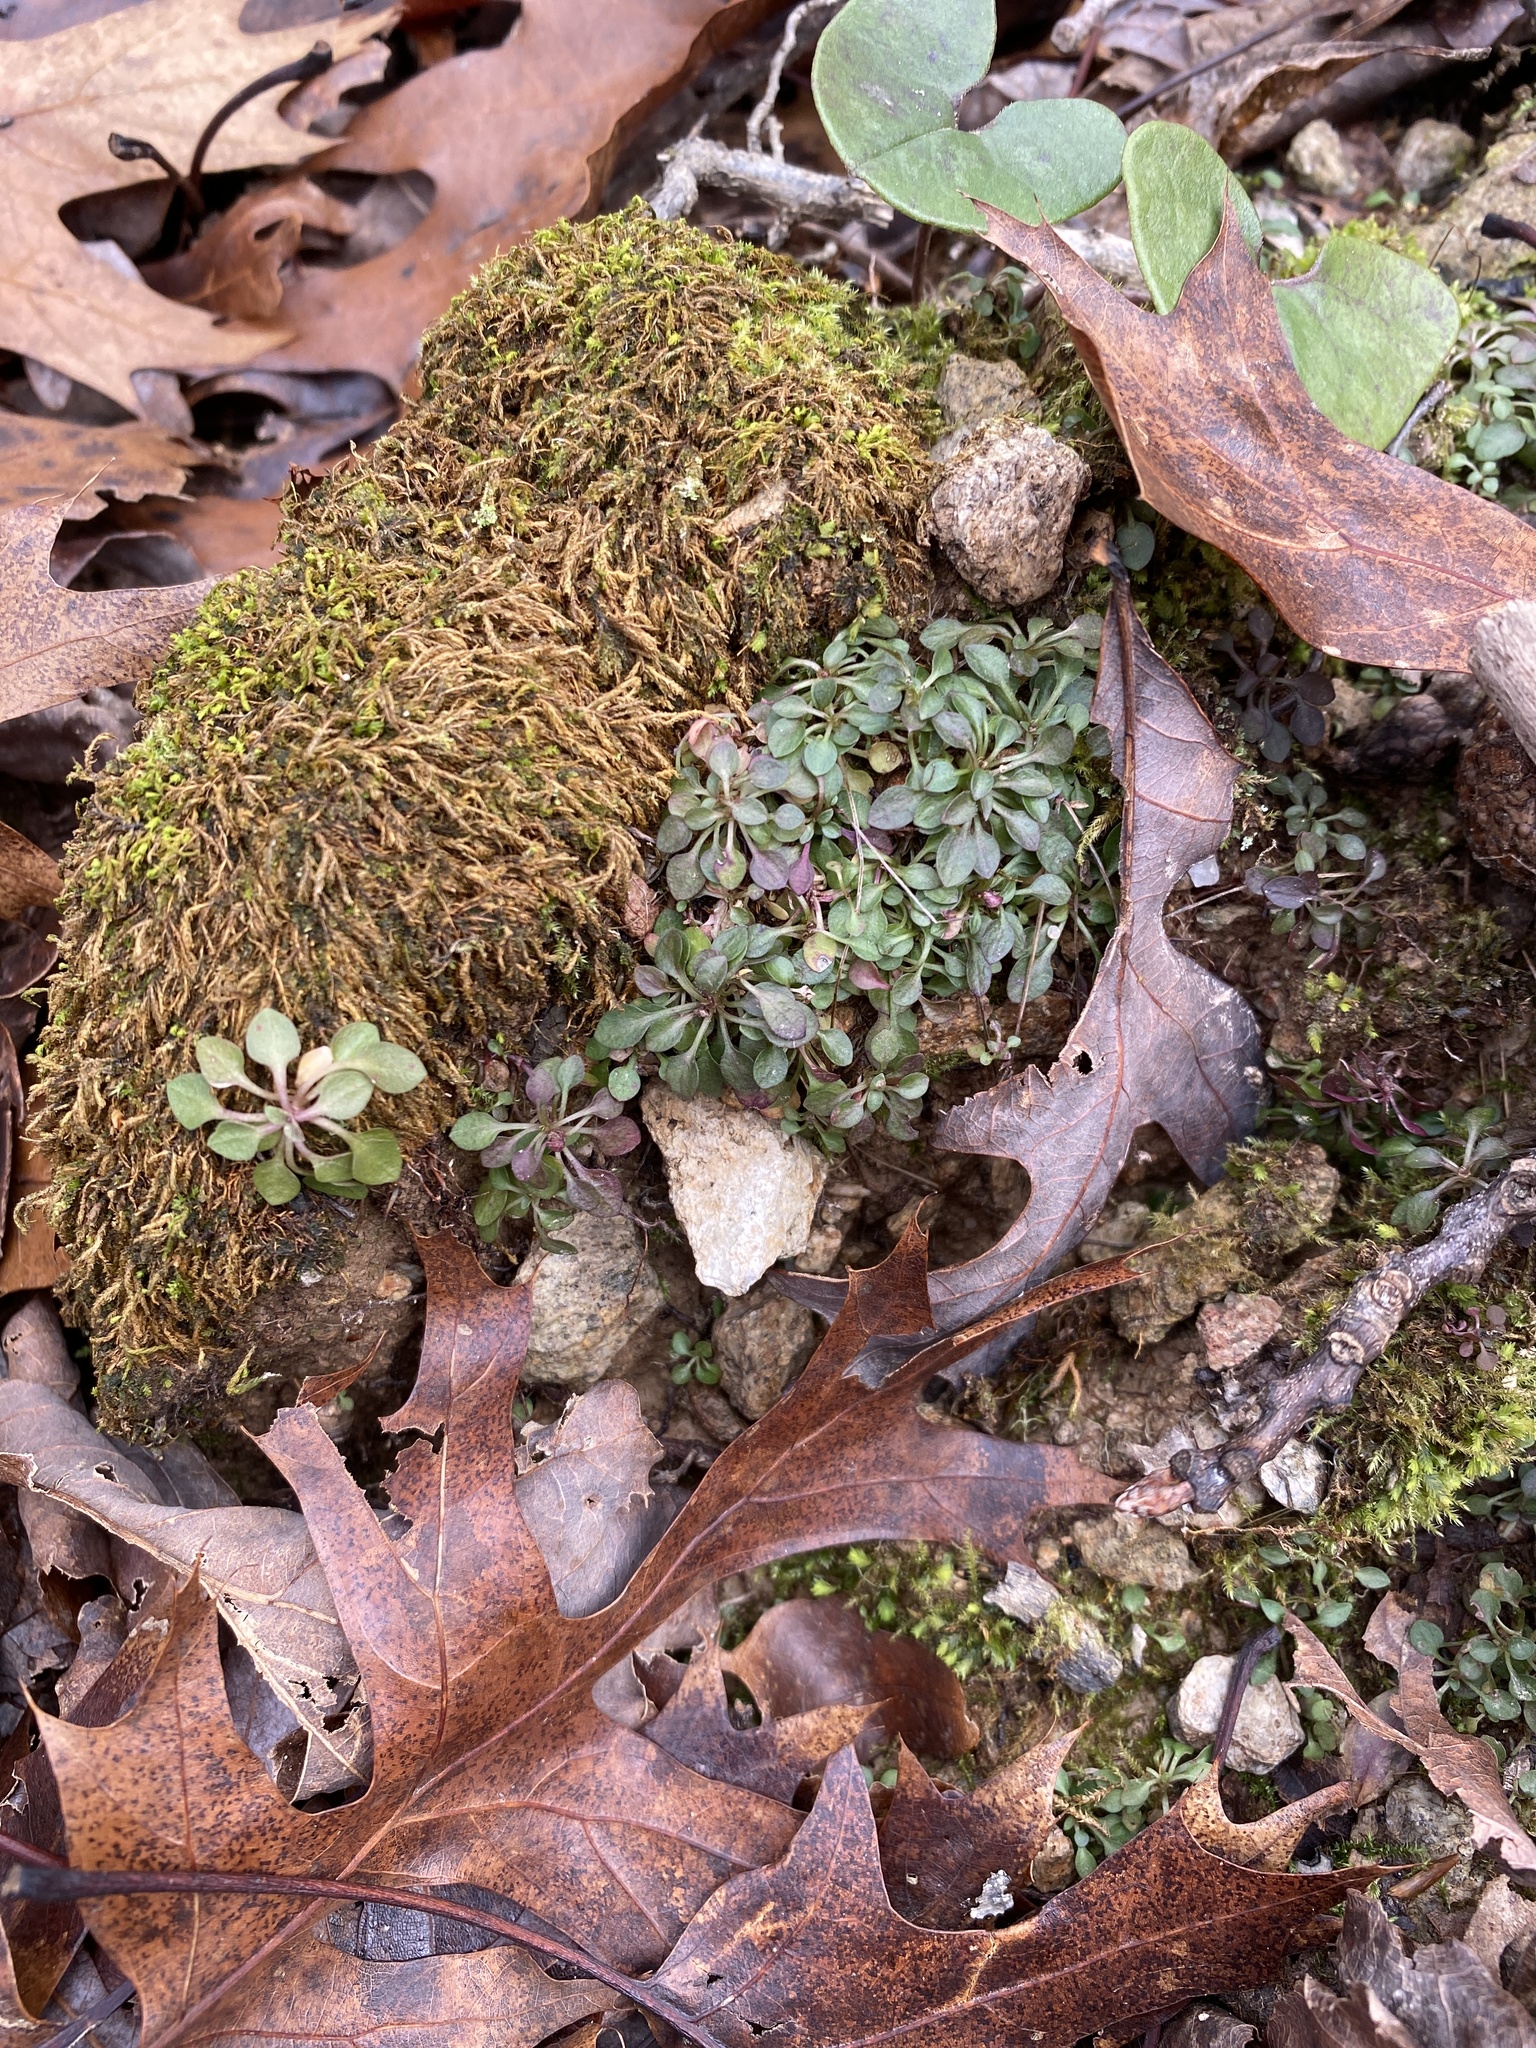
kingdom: Plantae
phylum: Tracheophyta
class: Magnoliopsida
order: Gentianales
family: Rubiaceae
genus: Houstonia
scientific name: Houstonia caerulea
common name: Bluets
